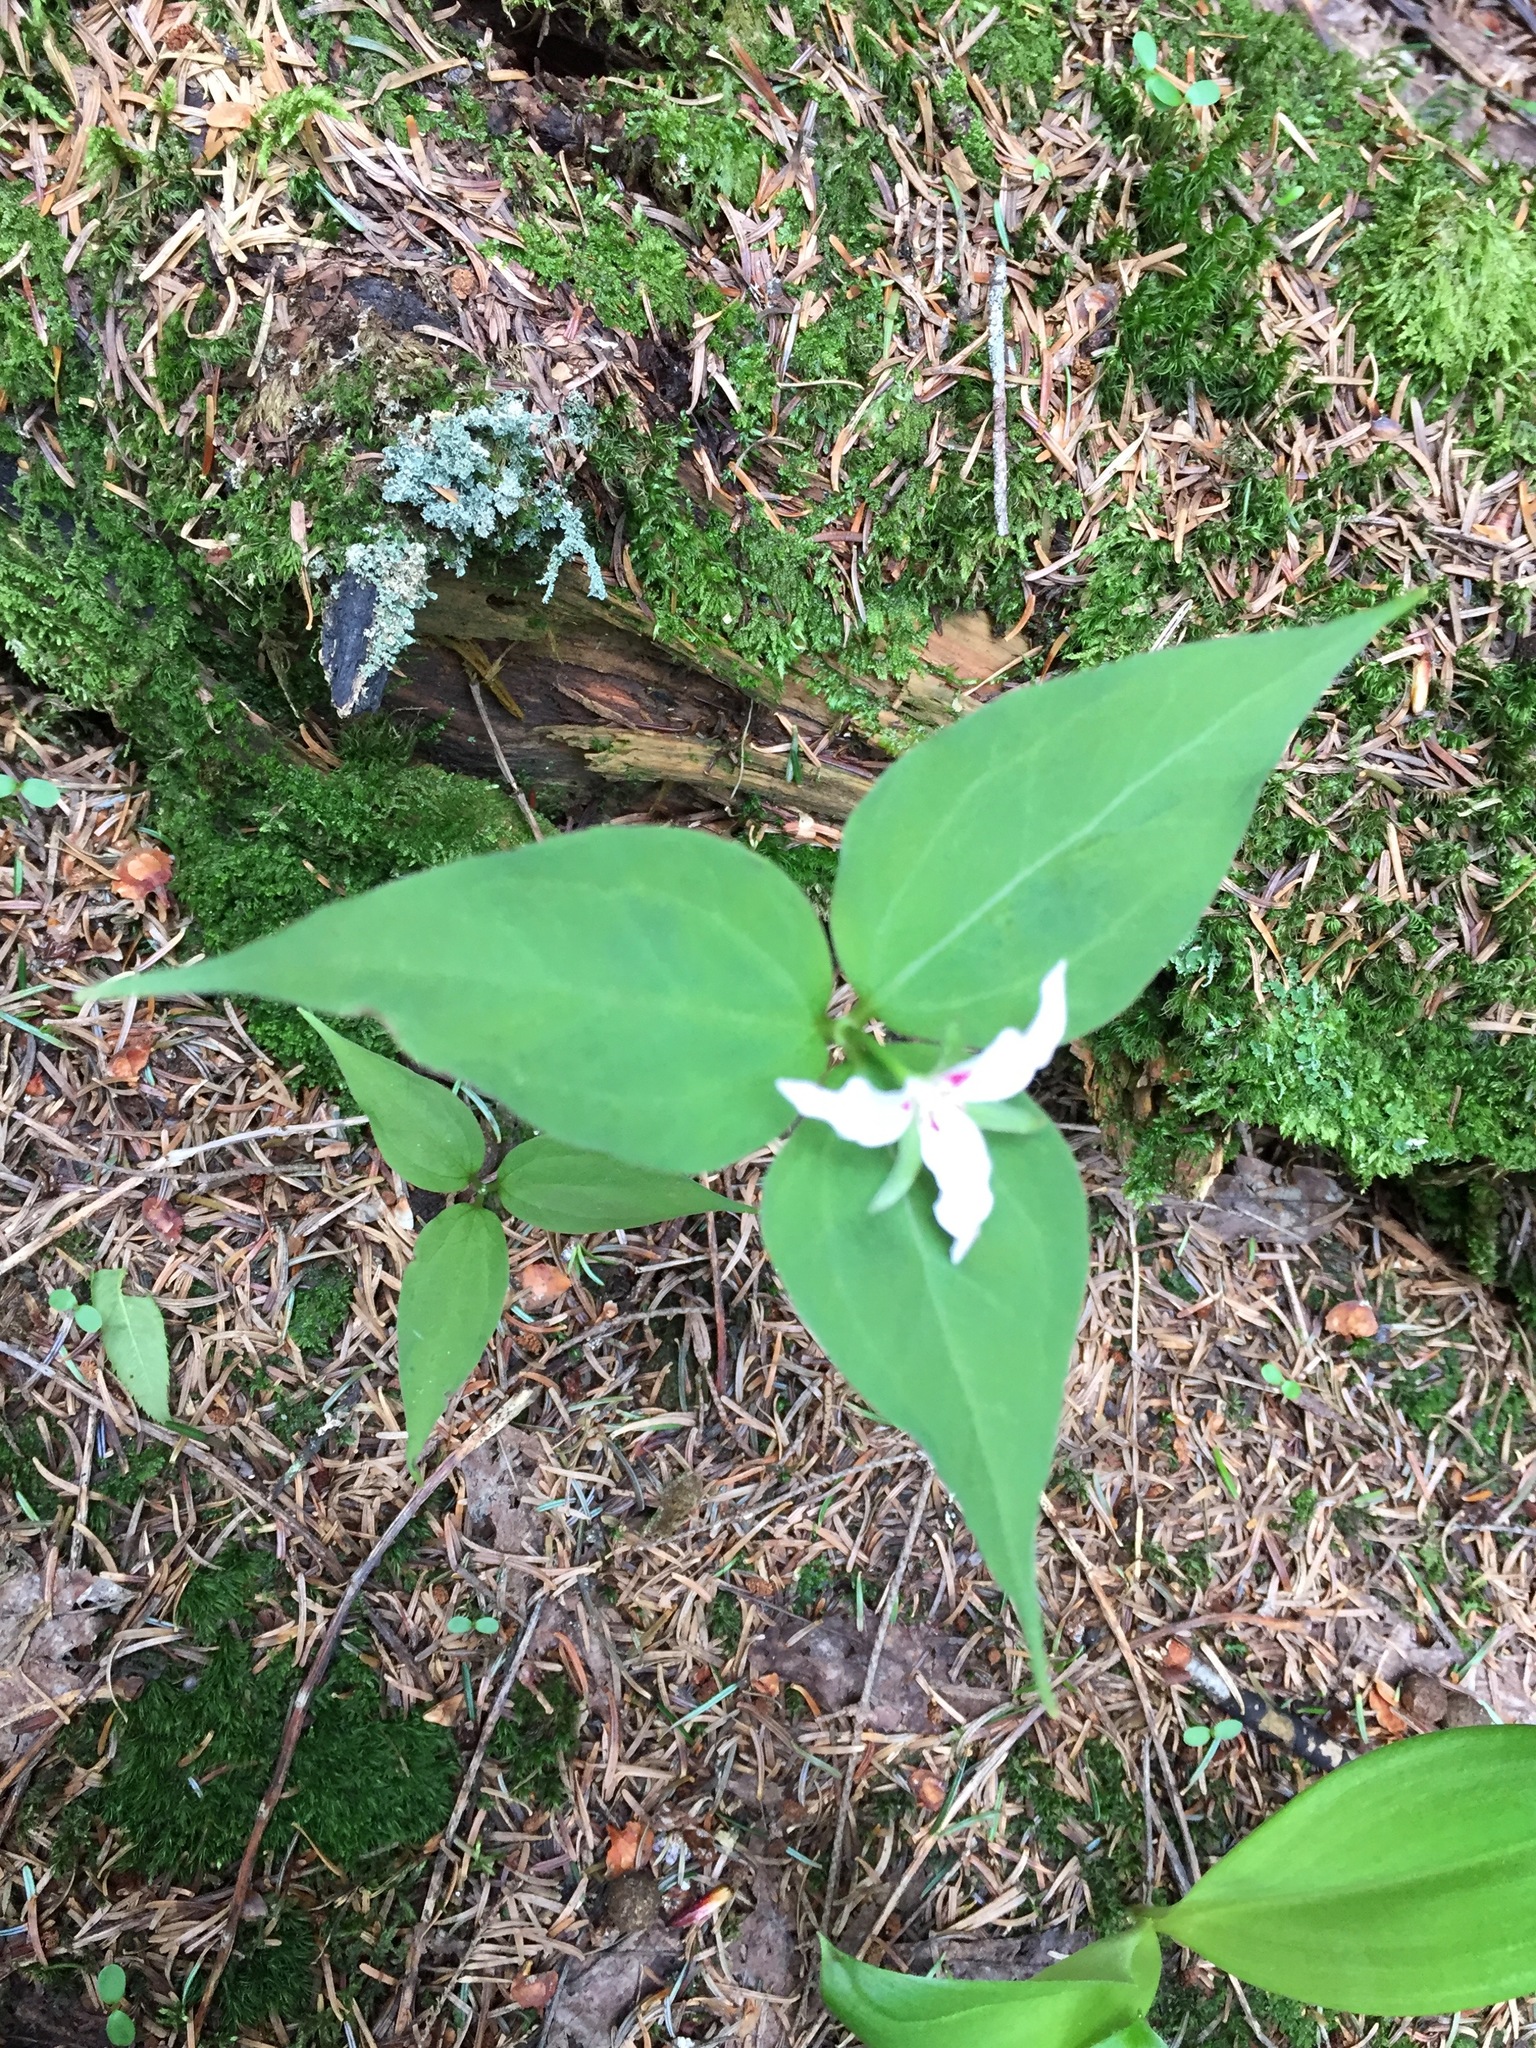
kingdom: Plantae
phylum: Tracheophyta
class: Liliopsida
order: Liliales
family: Melanthiaceae
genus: Trillium
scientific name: Trillium undulatum
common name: Paint trillium
